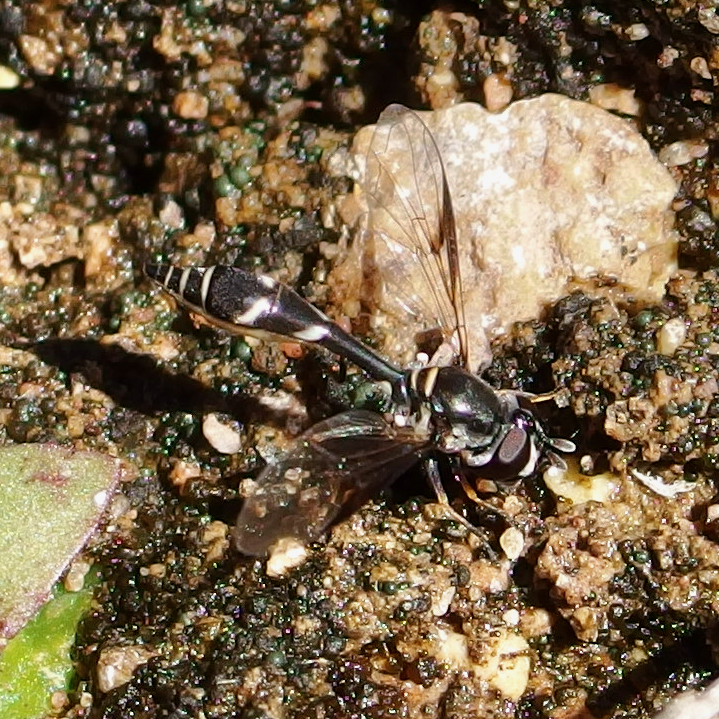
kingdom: Animalia
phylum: Arthropoda
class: Insecta
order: Diptera
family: Syrphidae
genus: Dioprosopa
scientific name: Dioprosopa clavatus
